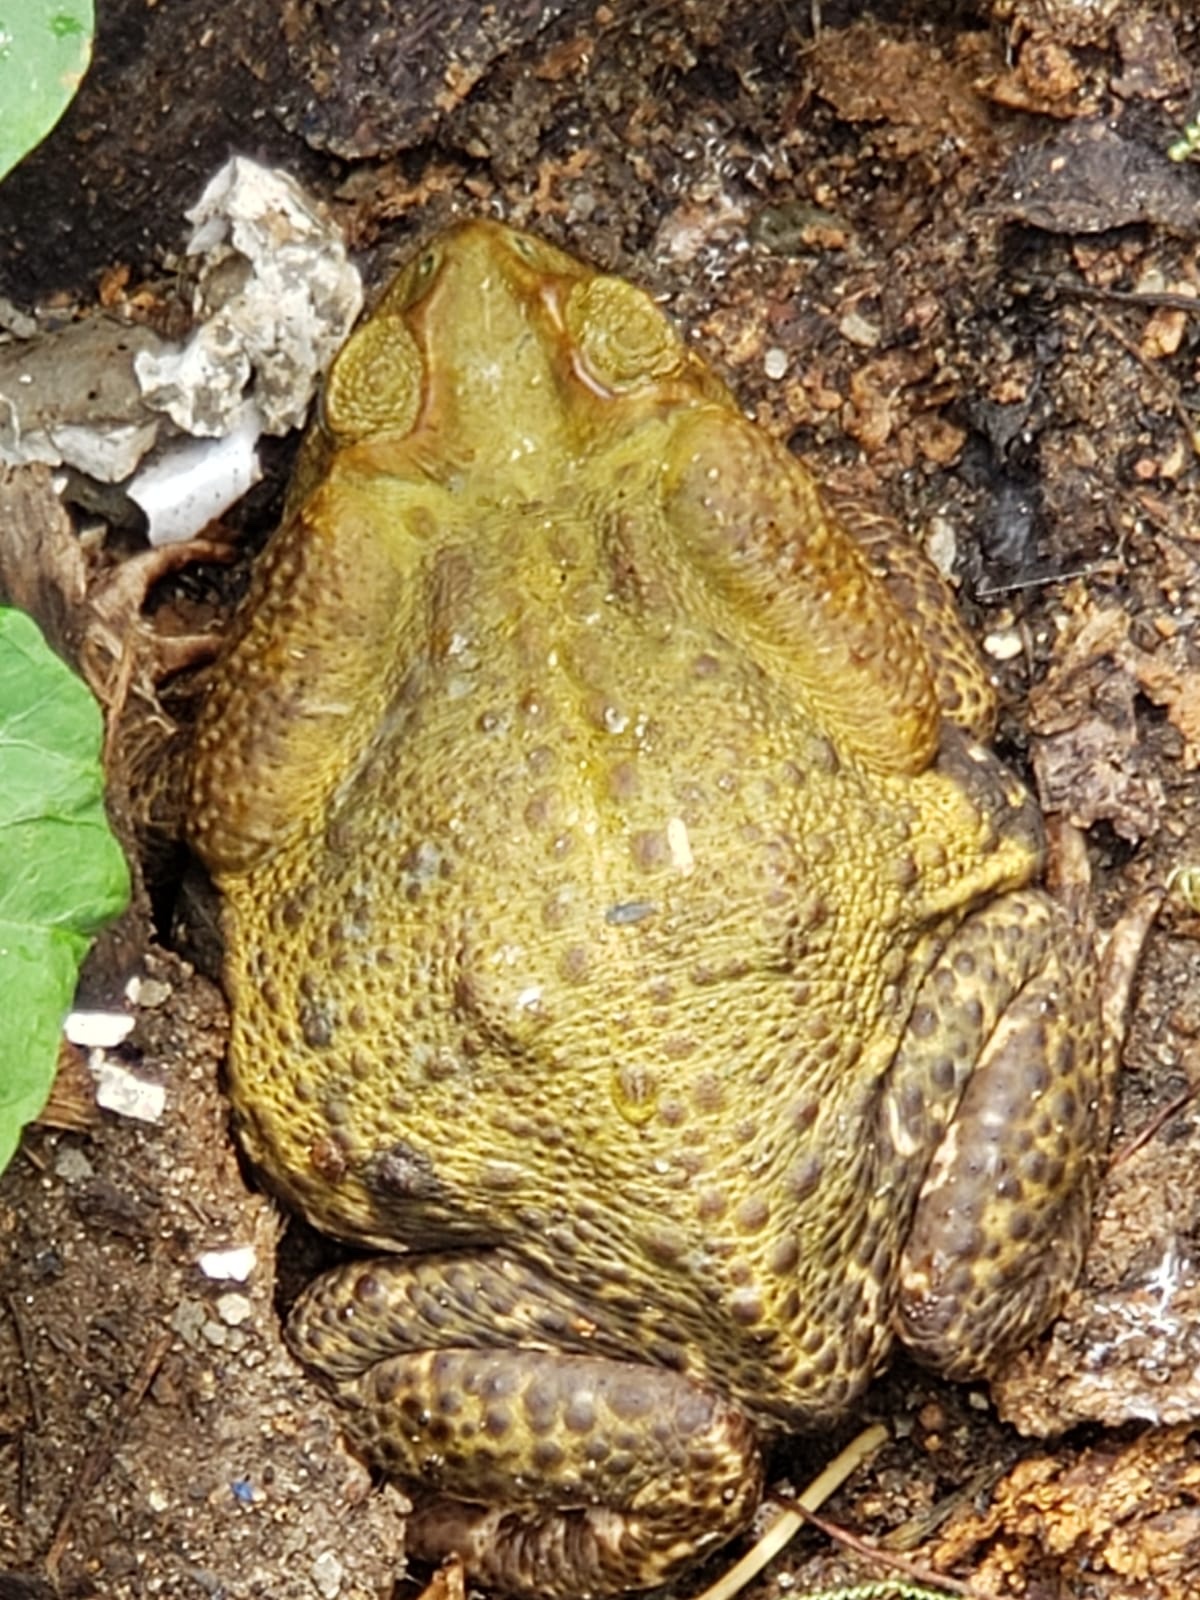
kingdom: Animalia
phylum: Chordata
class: Amphibia
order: Anura
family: Bufonidae
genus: Rhinella
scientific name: Rhinella icterica
